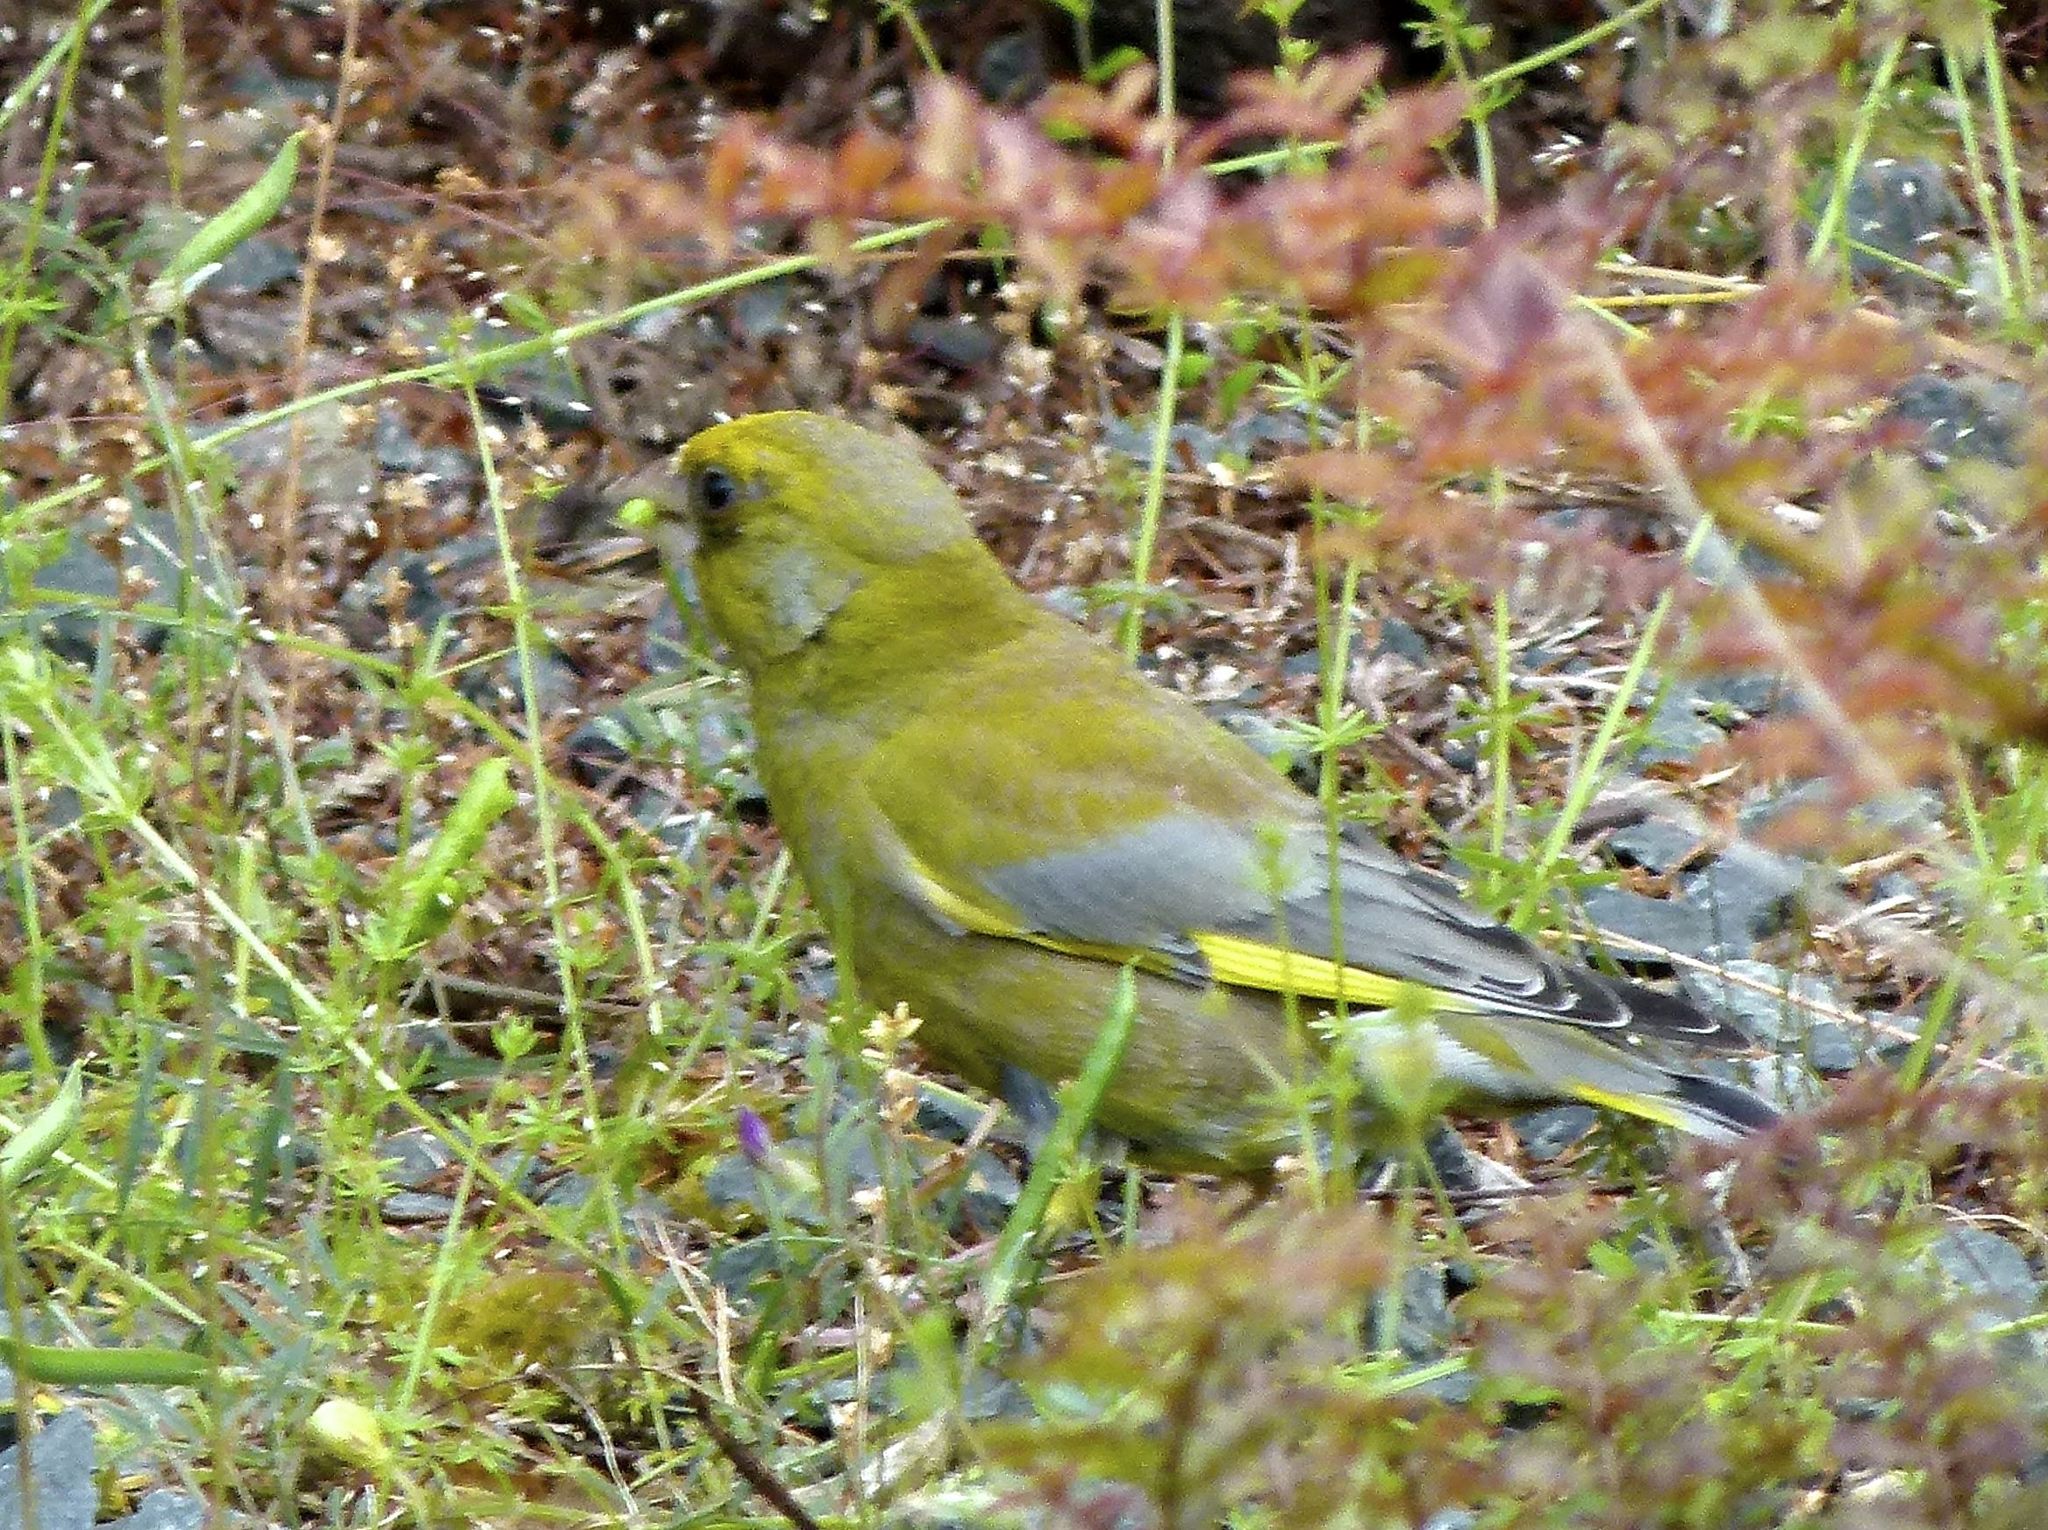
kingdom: Plantae
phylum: Tracheophyta
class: Liliopsida
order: Poales
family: Poaceae
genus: Chloris
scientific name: Chloris chloris
